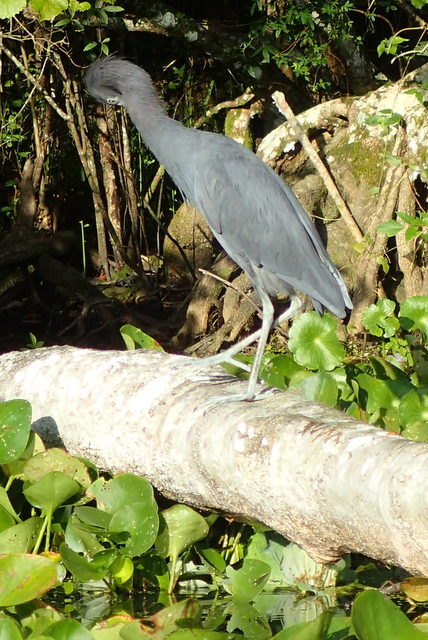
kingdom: Animalia
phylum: Chordata
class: Aves
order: Pelecaniformes
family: Ardeidae
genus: Egretta
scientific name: Egretta caerulea
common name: Little blue heron
